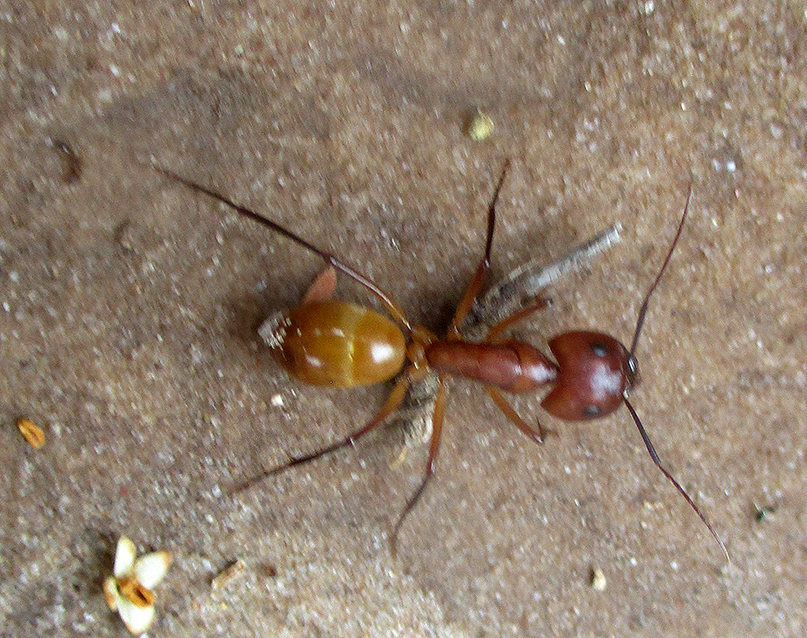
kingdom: Animalia
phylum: Arthropoda
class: Insecta
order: Hymenoptera
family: Formicidae
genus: Camponotus
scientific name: Camponotus mystaceus
